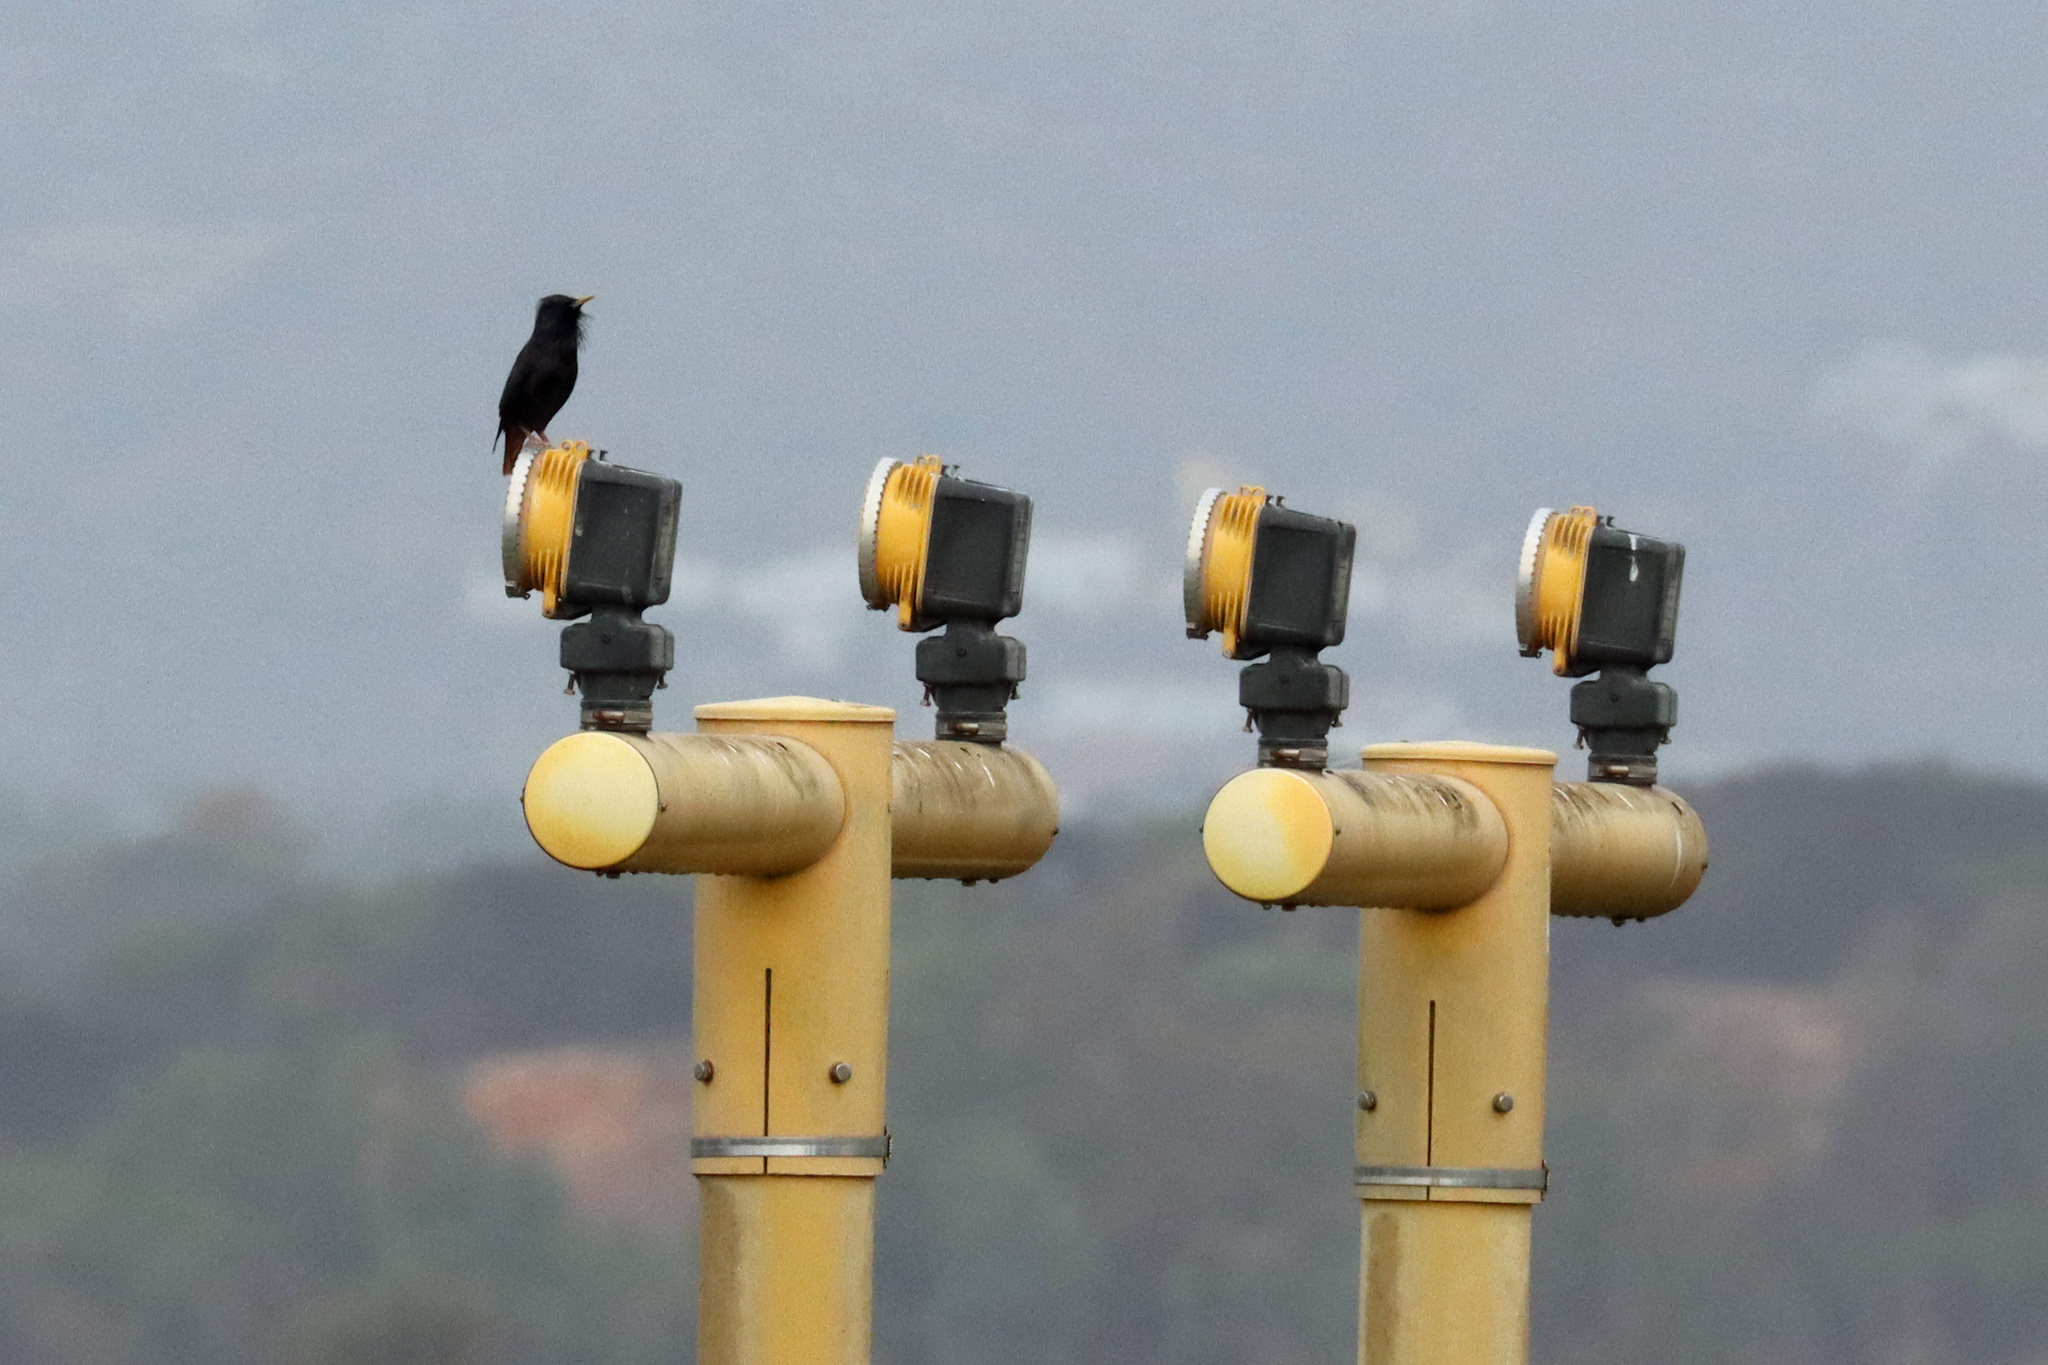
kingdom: Animalia
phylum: Chordata
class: Aves
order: Passeriformes
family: Sturnidae
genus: Sturnus
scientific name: Sturnus unicolor
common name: Spotless starling
